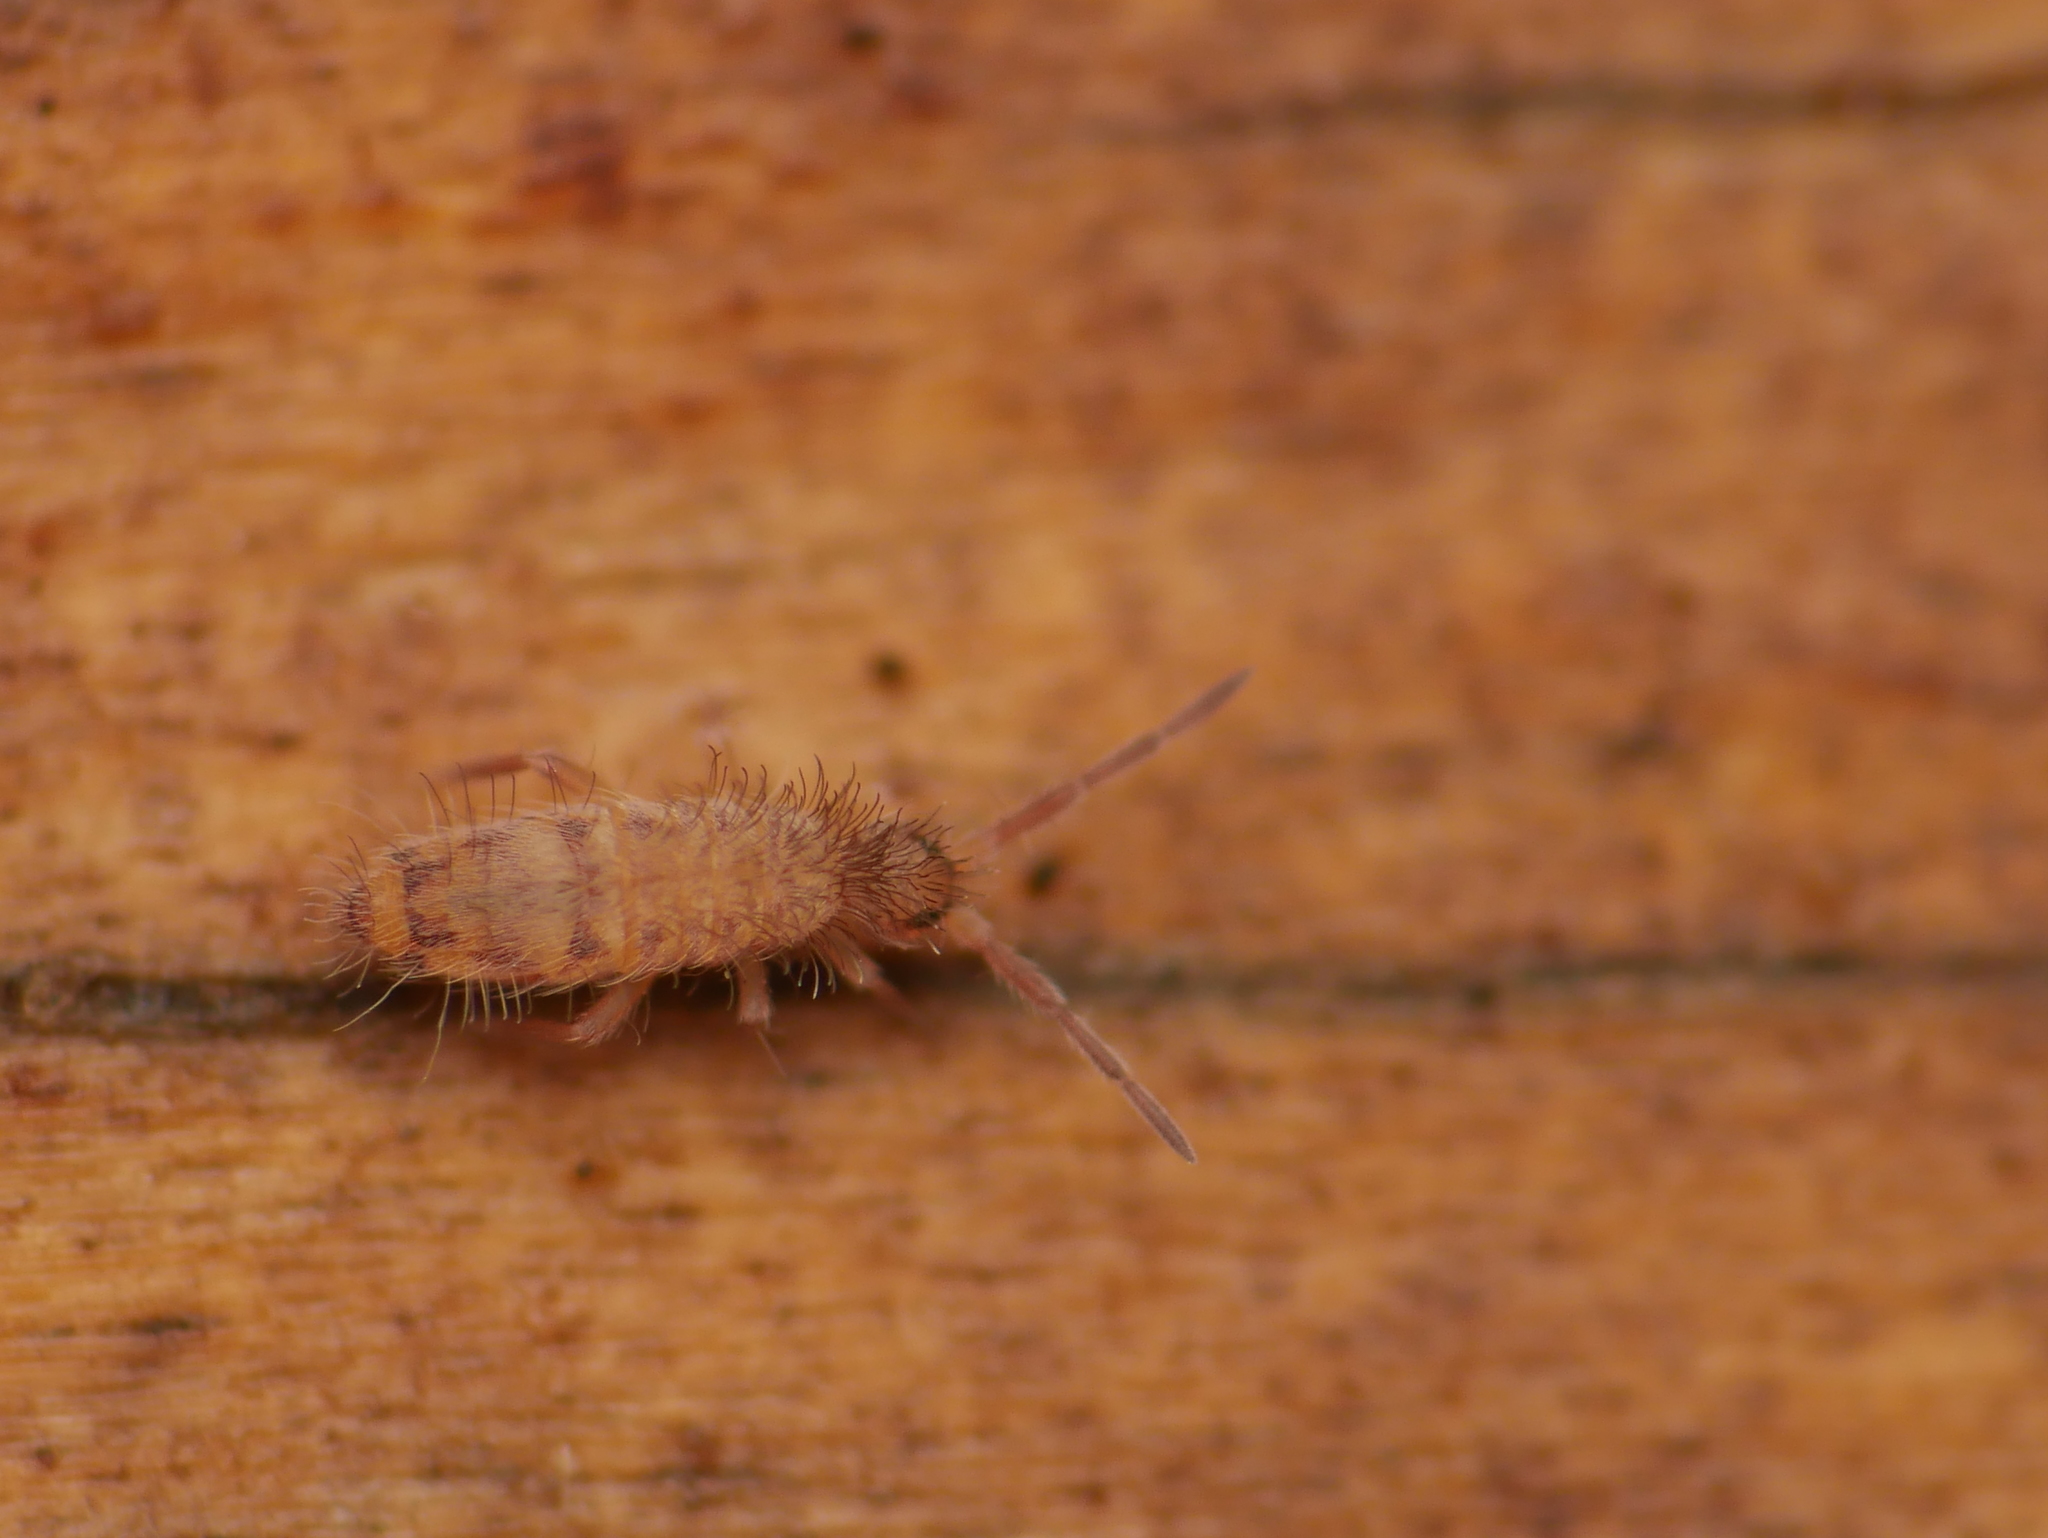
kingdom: Animalia
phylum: Arthropoda
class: Collembola
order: Entomobryomorpha
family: Entomobryidae
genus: Entomobrya
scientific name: Entomobrya multifasciata
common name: Springtail
